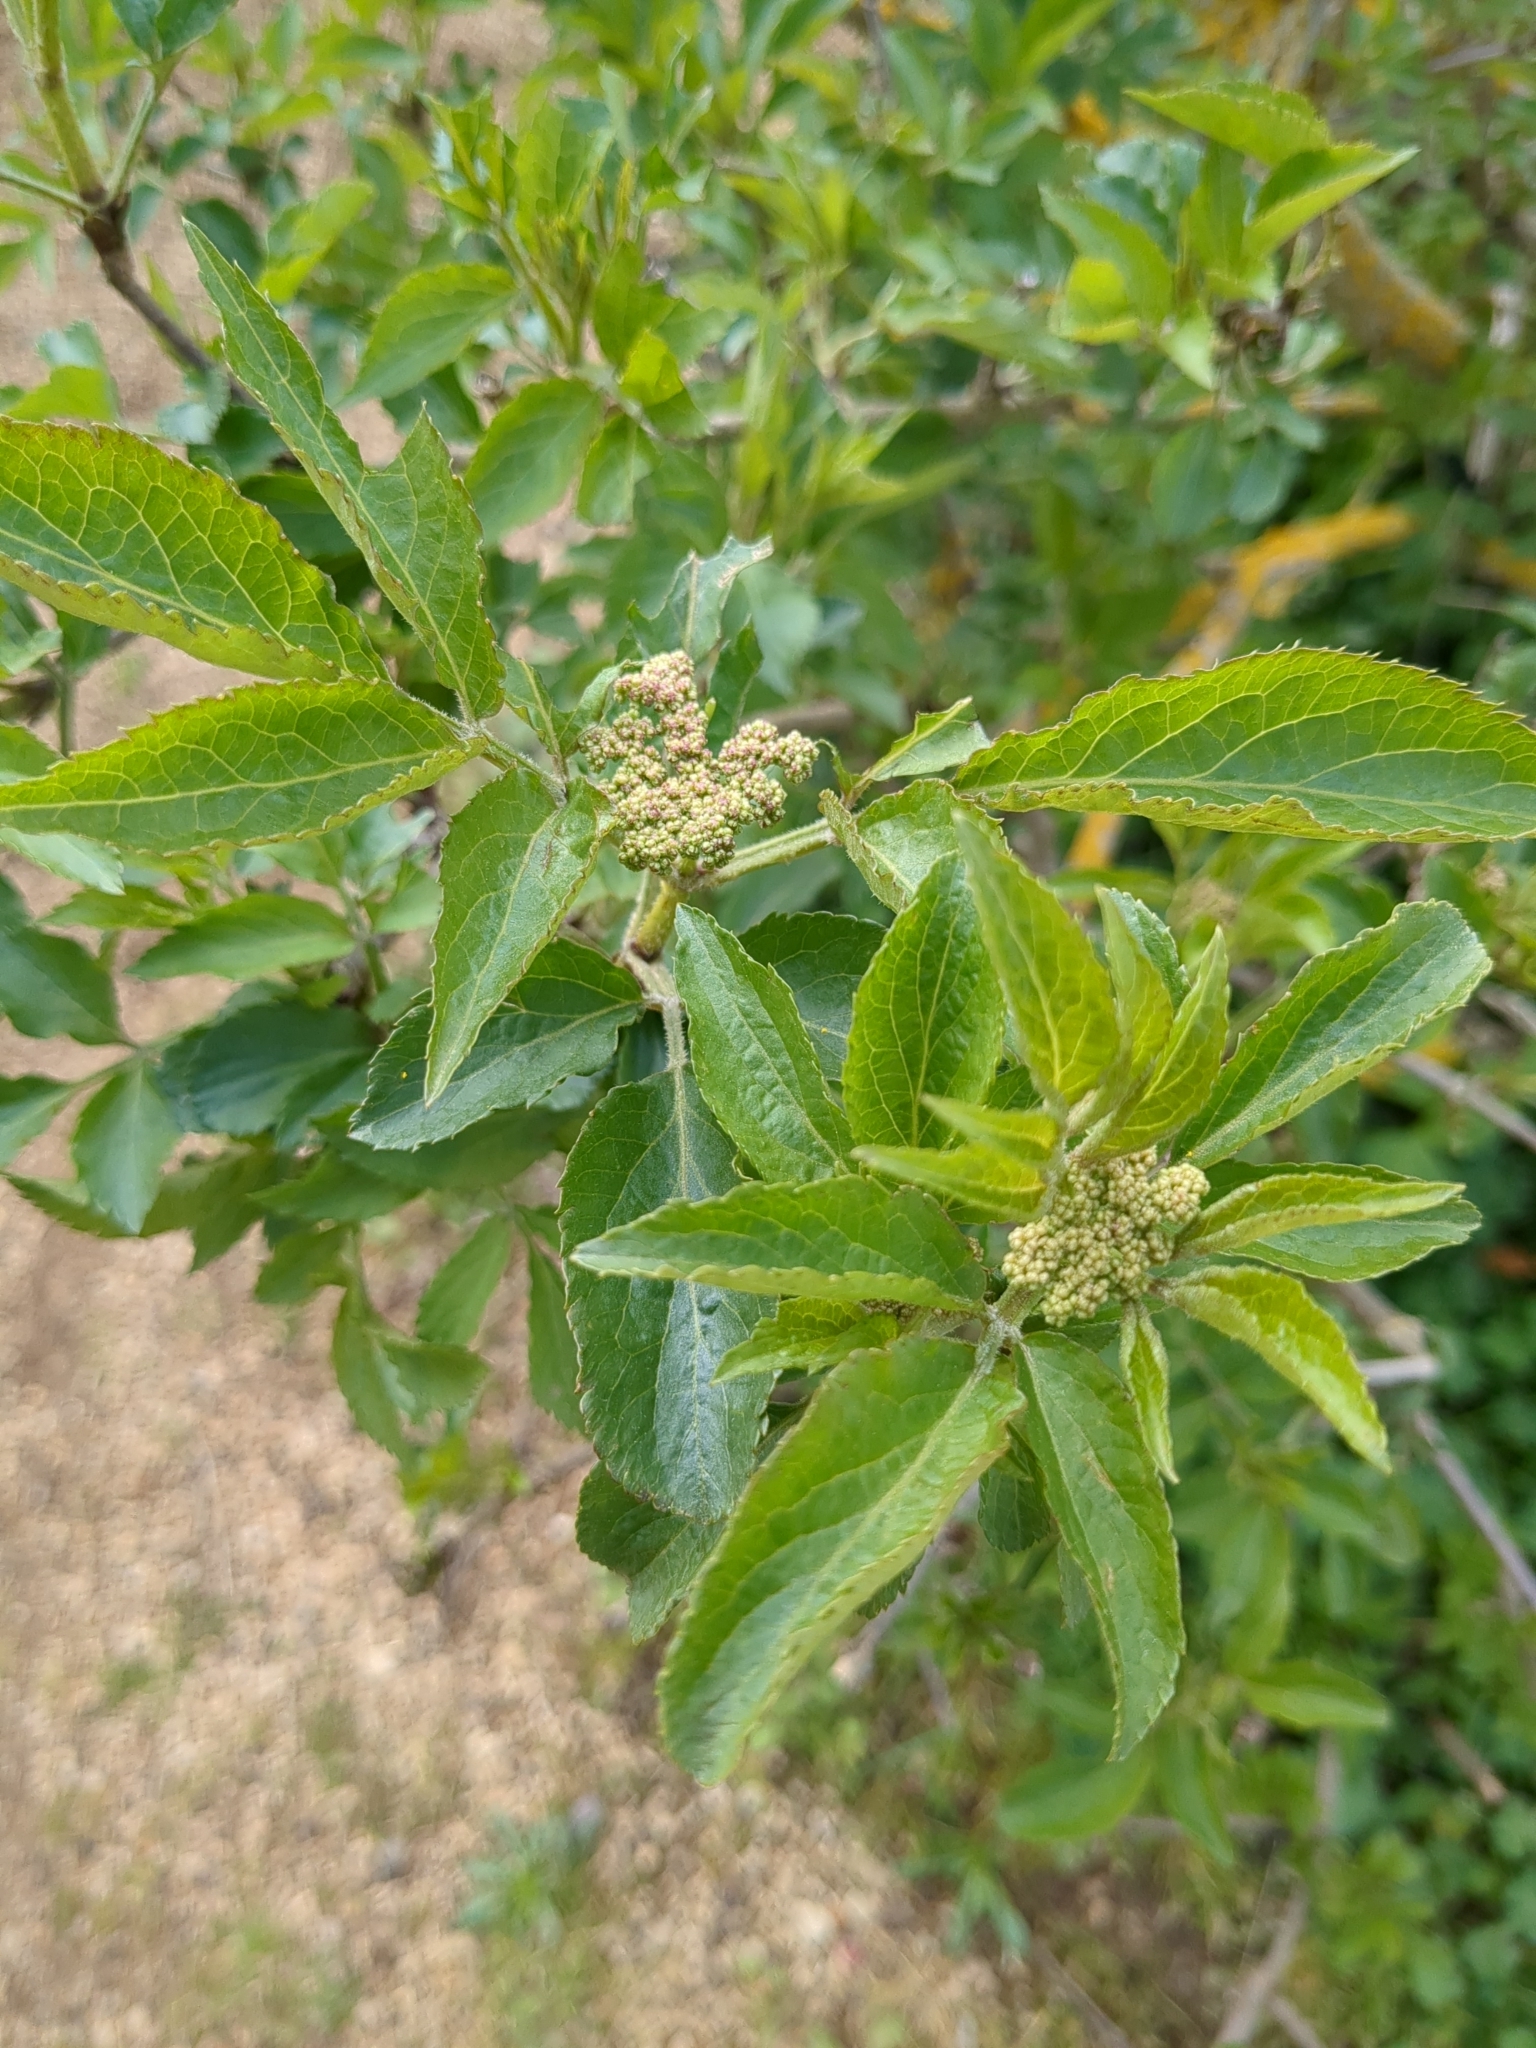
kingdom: Plantae
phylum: Tracheophyta
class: Magnoliopsida
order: Dipsacales
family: Viburnaceae
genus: Sambucus
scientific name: Sambucus nigra
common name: Elder
